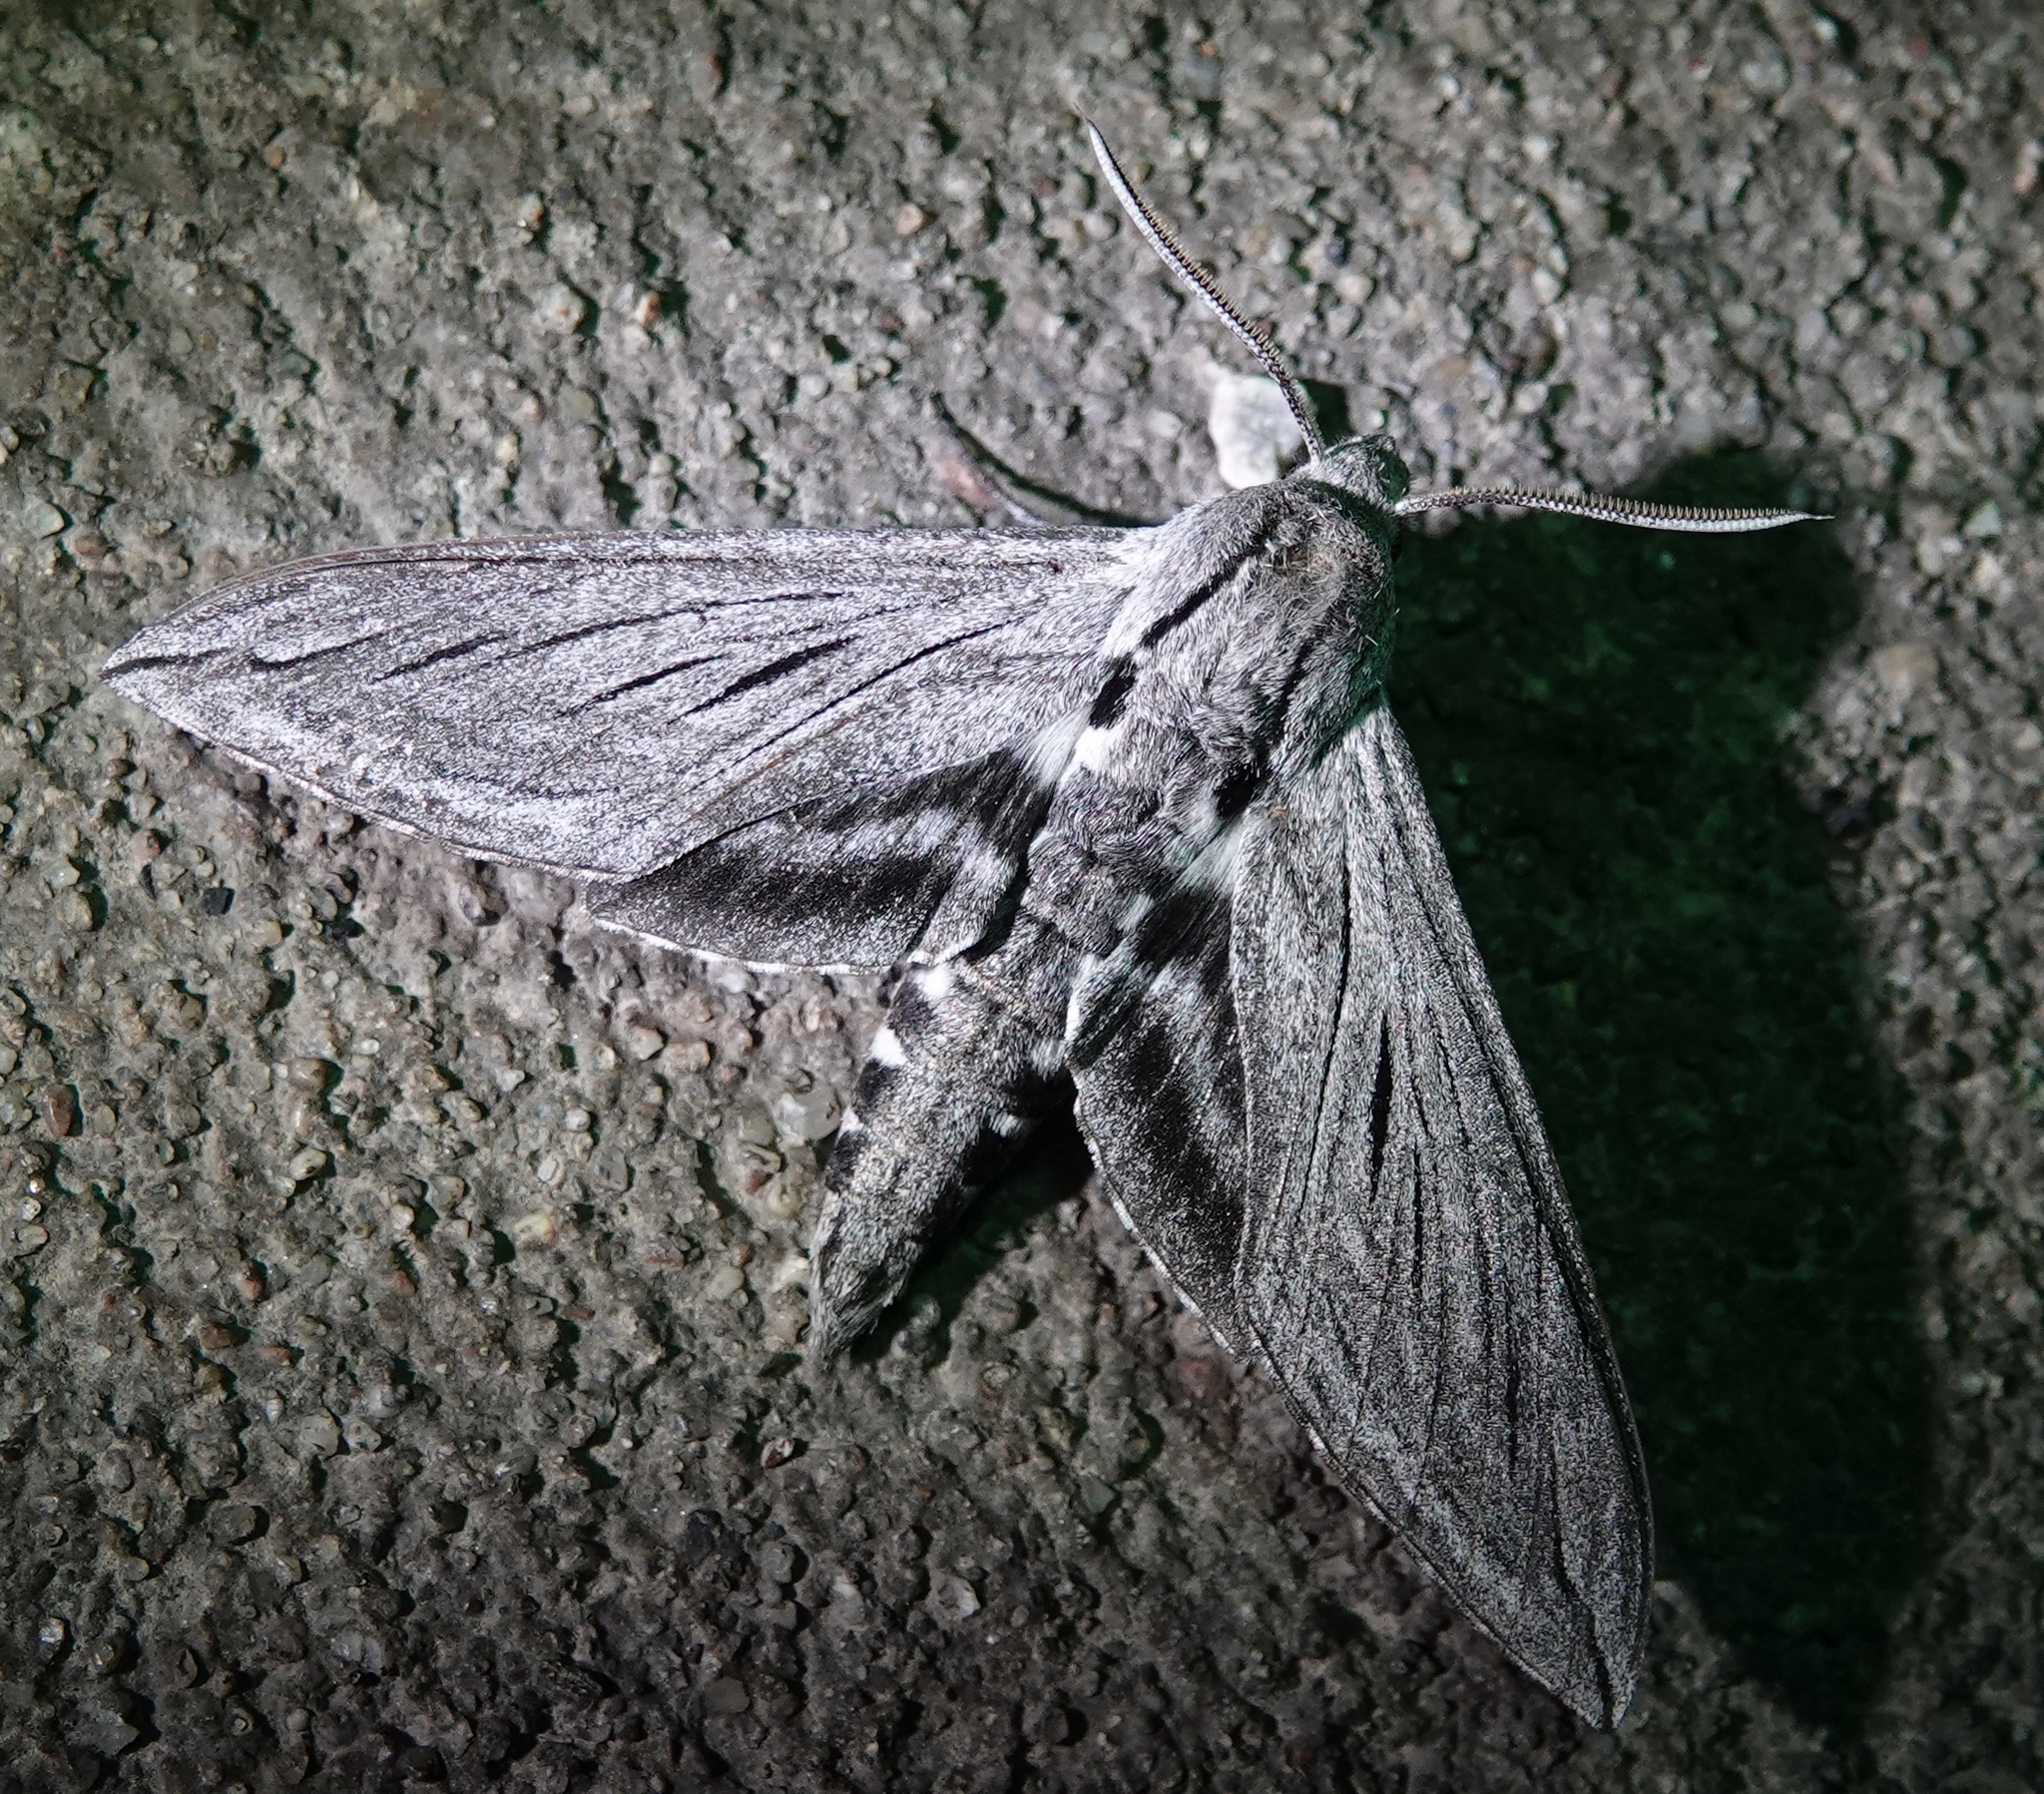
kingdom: Animalia
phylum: Arthropoda
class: Insecta
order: Lepidoptera
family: Sphingidae
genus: Sphinx
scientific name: Sphinx chersis
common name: Great ash sphinx
